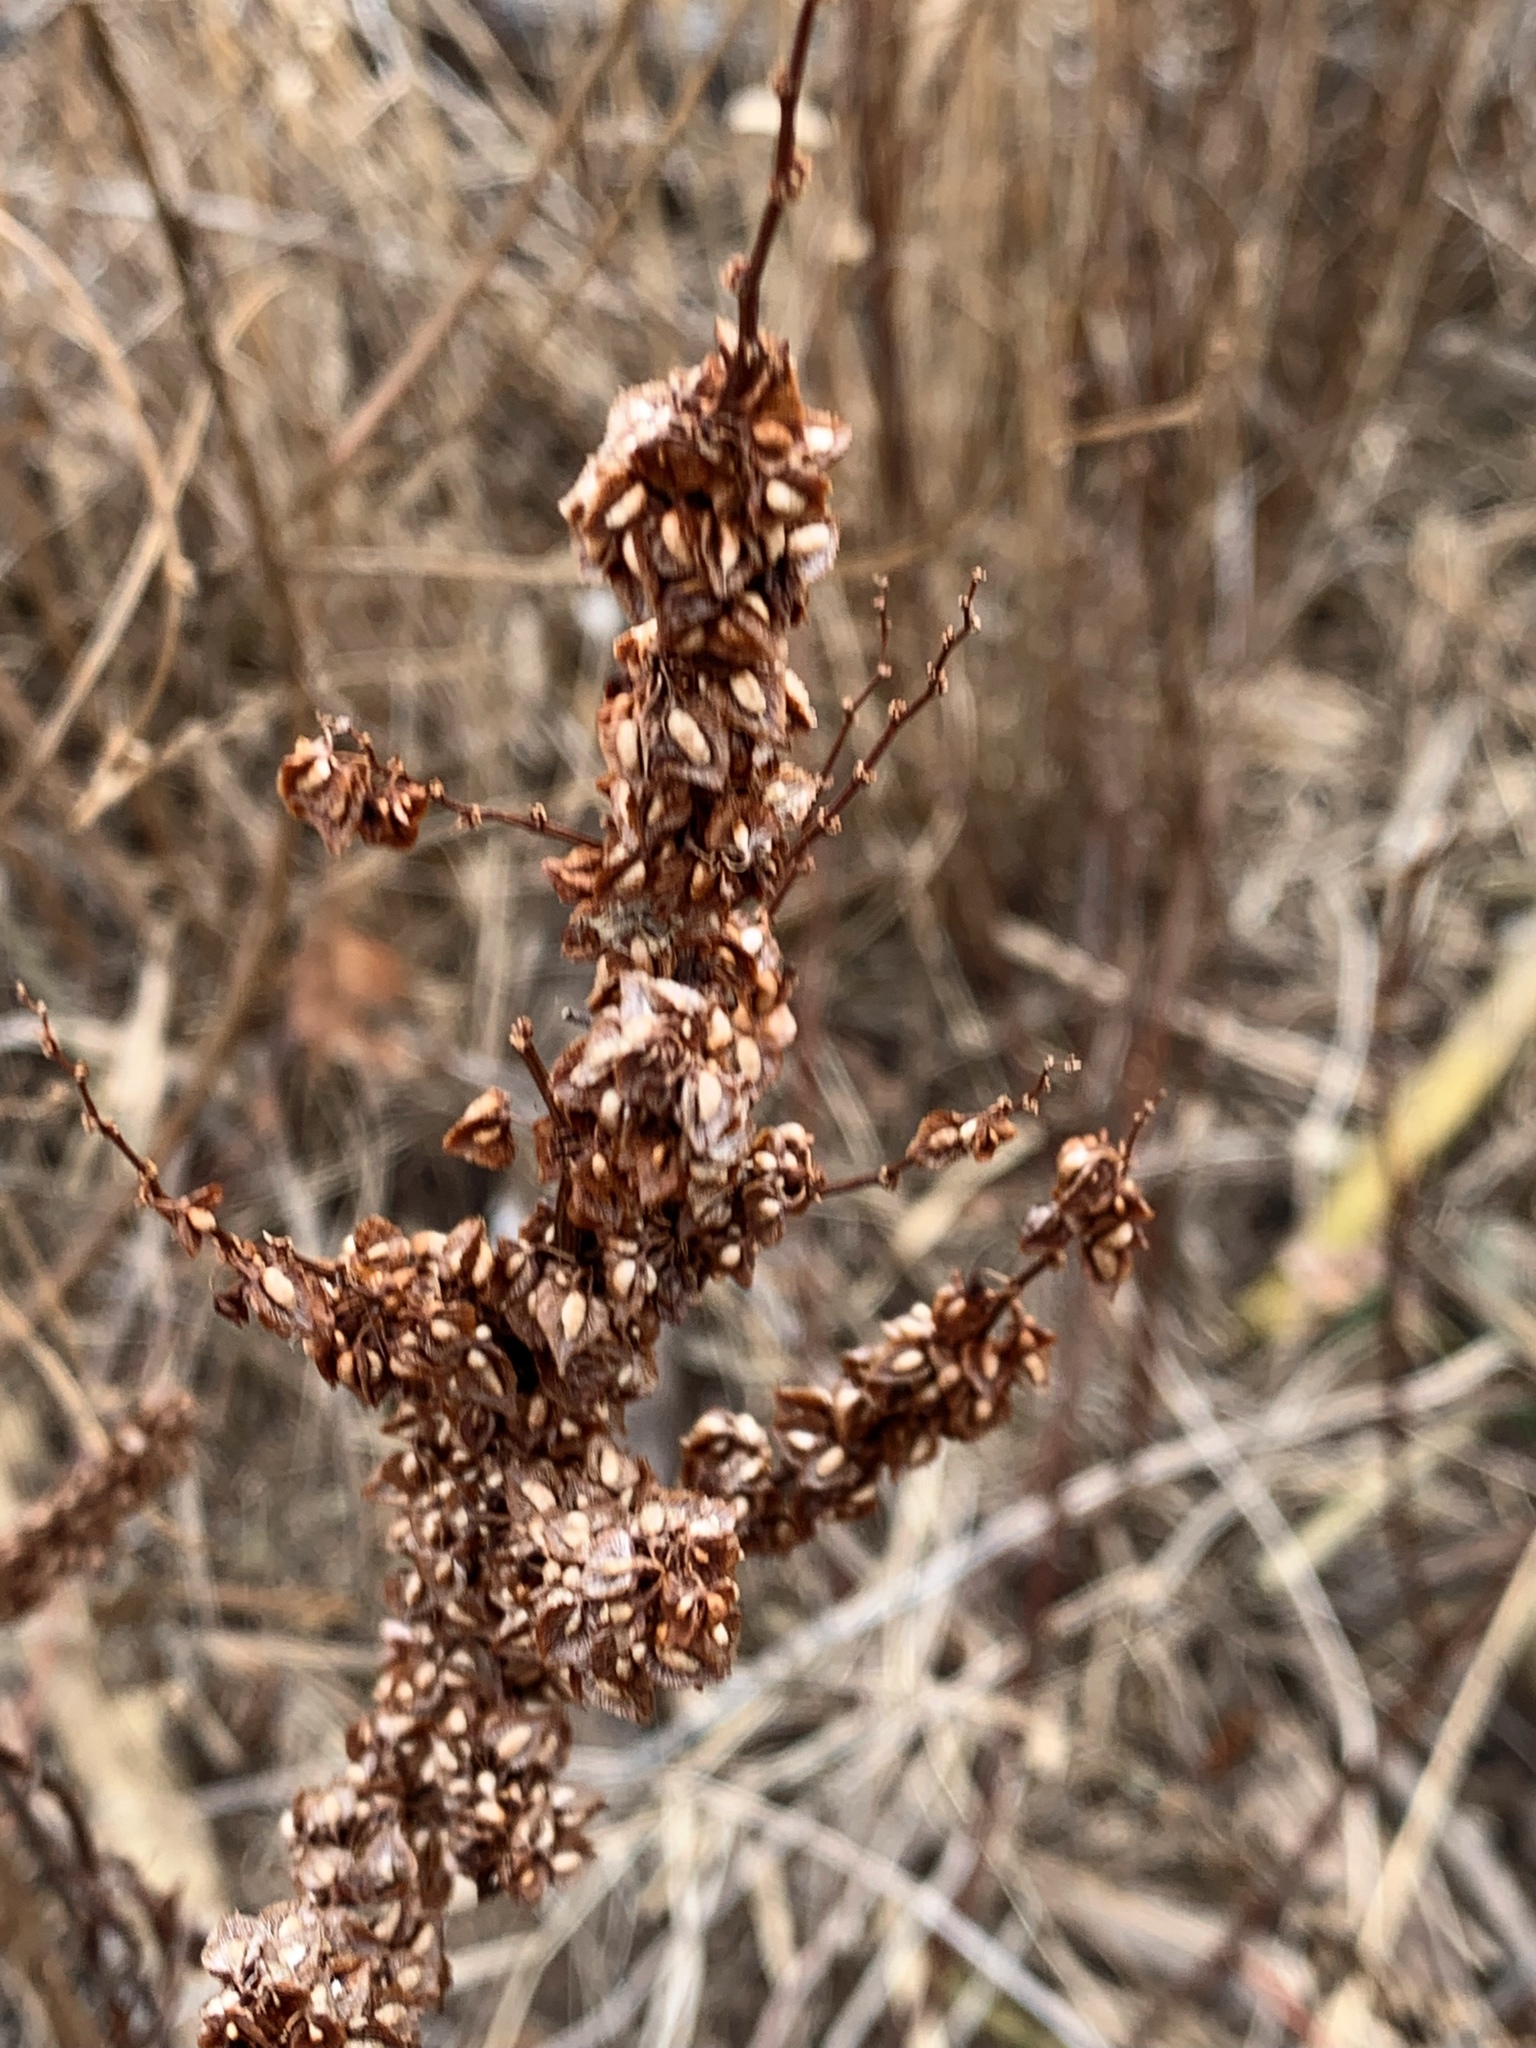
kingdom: Plantae
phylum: Tracheophyta
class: Magnoliopsida
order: Caryophyllales
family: Polygonaceae
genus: Rumex
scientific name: Rumex crispus
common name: Curled dock
